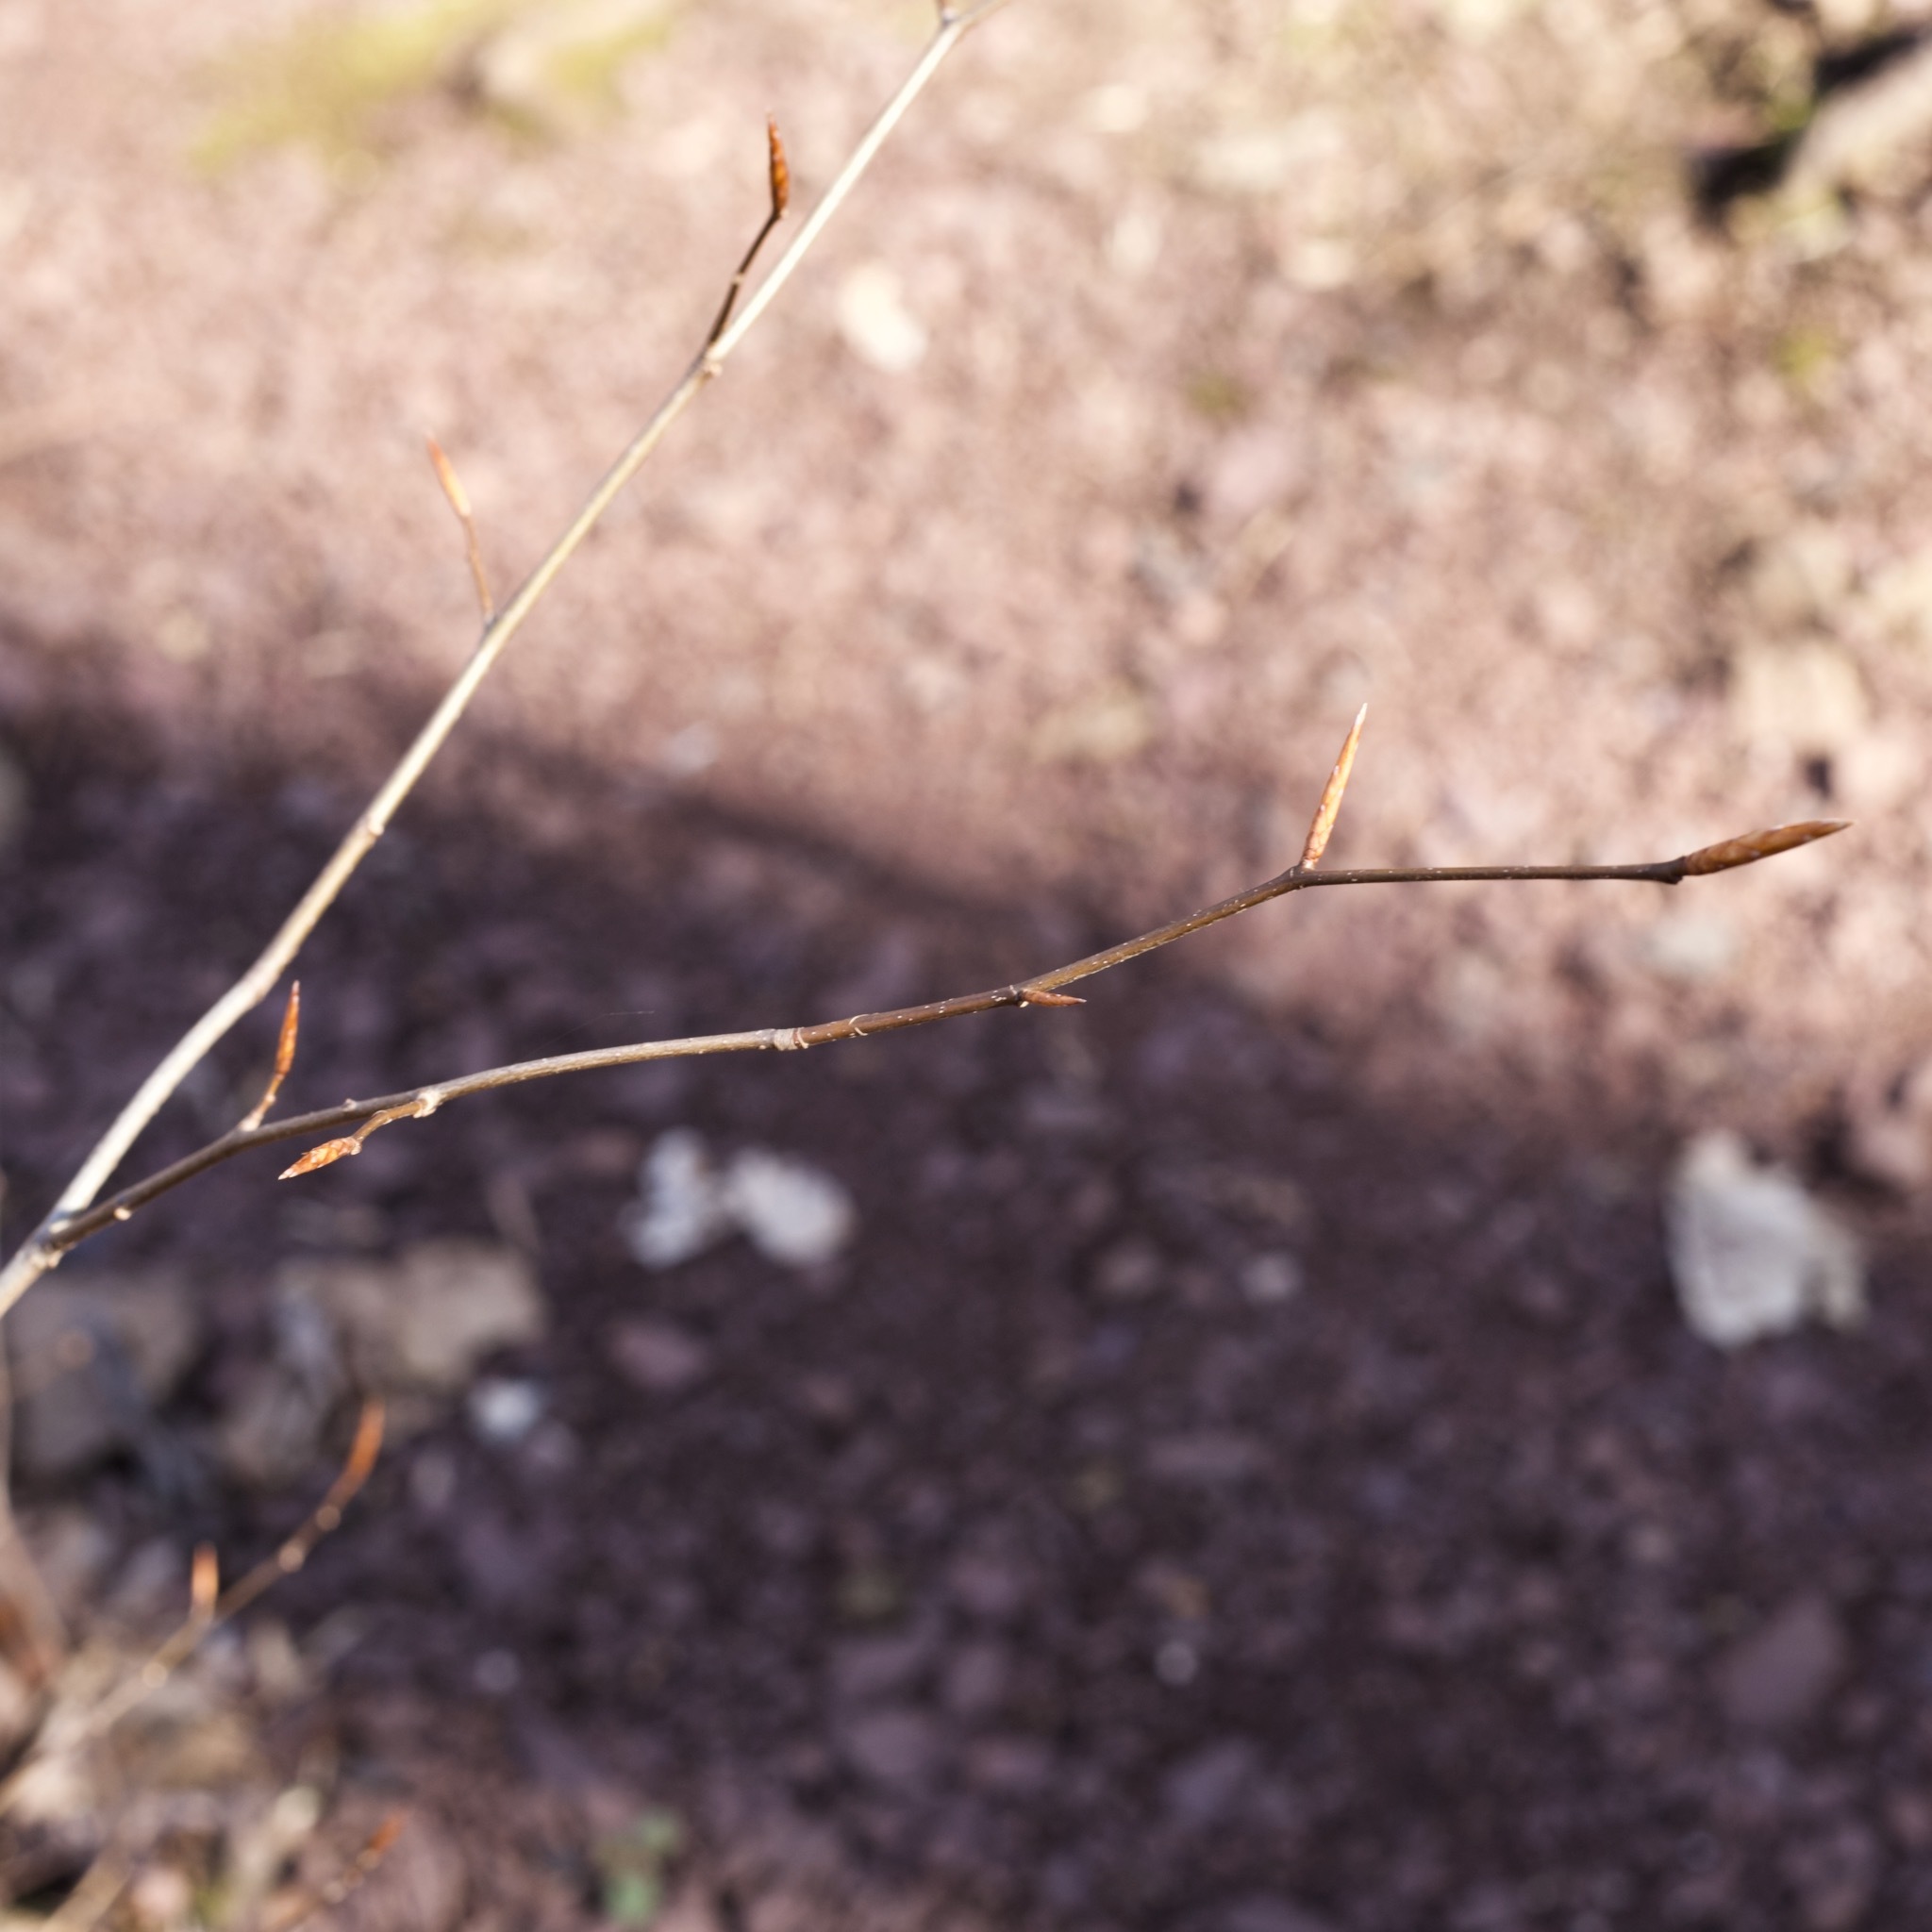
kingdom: Plantae
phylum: Tracheophyta
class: Magnoliopsida
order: Fagales
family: Fagaceae
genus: Fagus
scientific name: Fagus grandifolia
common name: American beech
